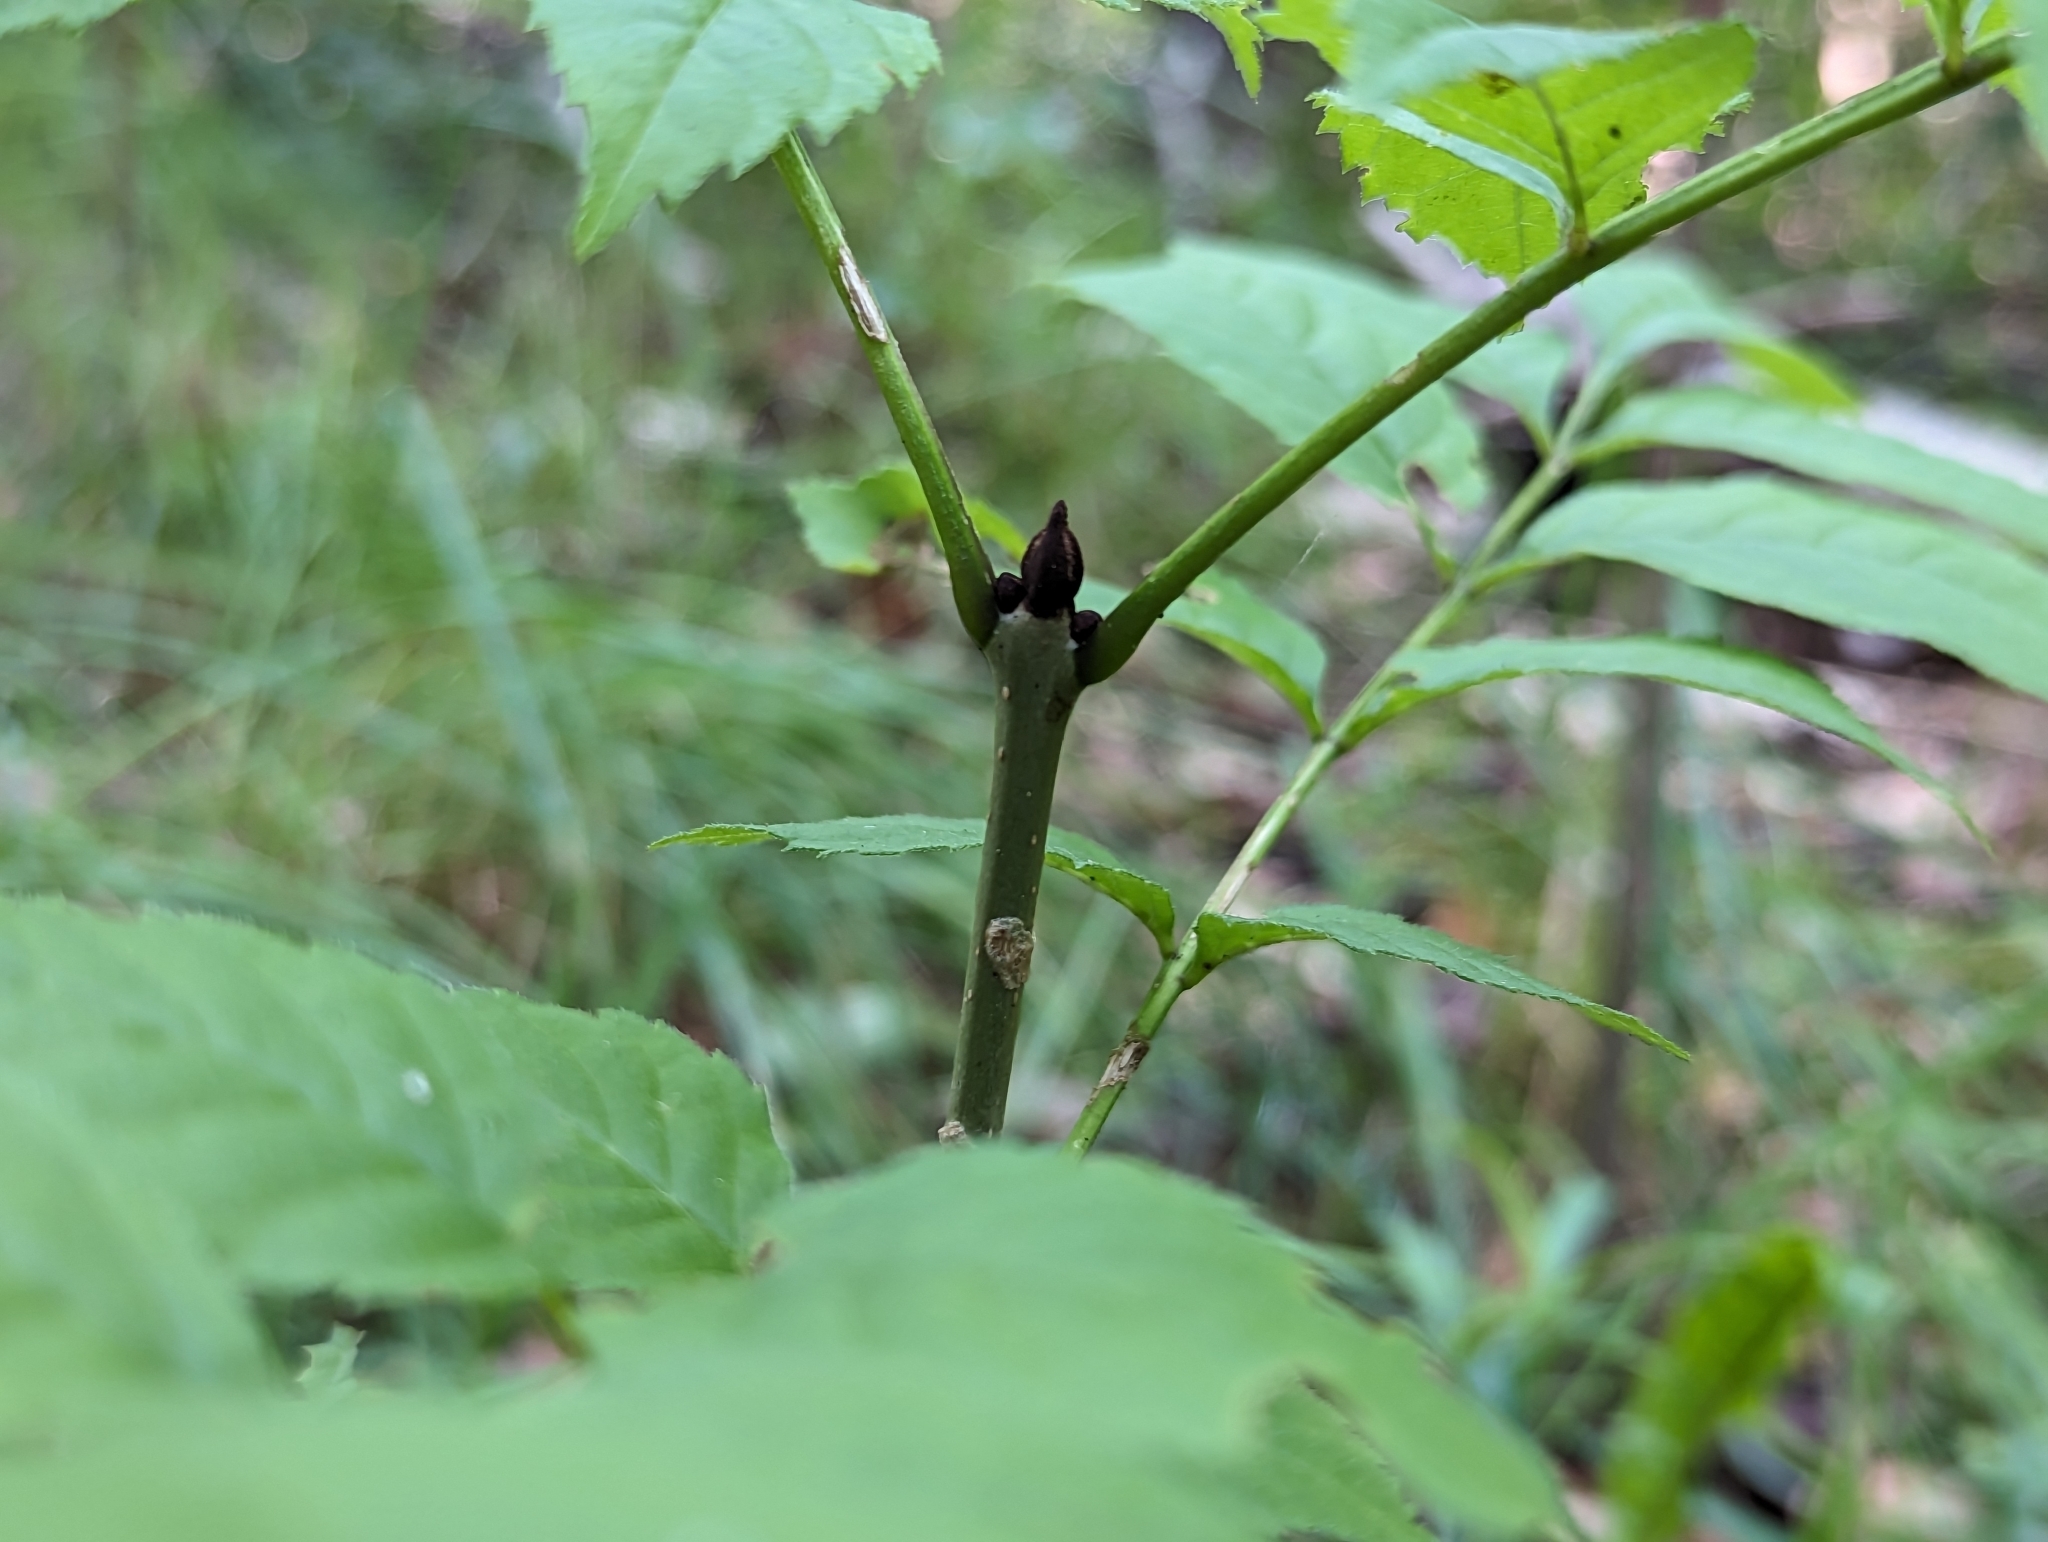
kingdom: Plantae
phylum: Tracheophyta
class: Magnoliopsida
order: Lamiales
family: Oleaceae
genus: Fraxinus
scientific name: Fraxinus excelsior
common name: European ash
